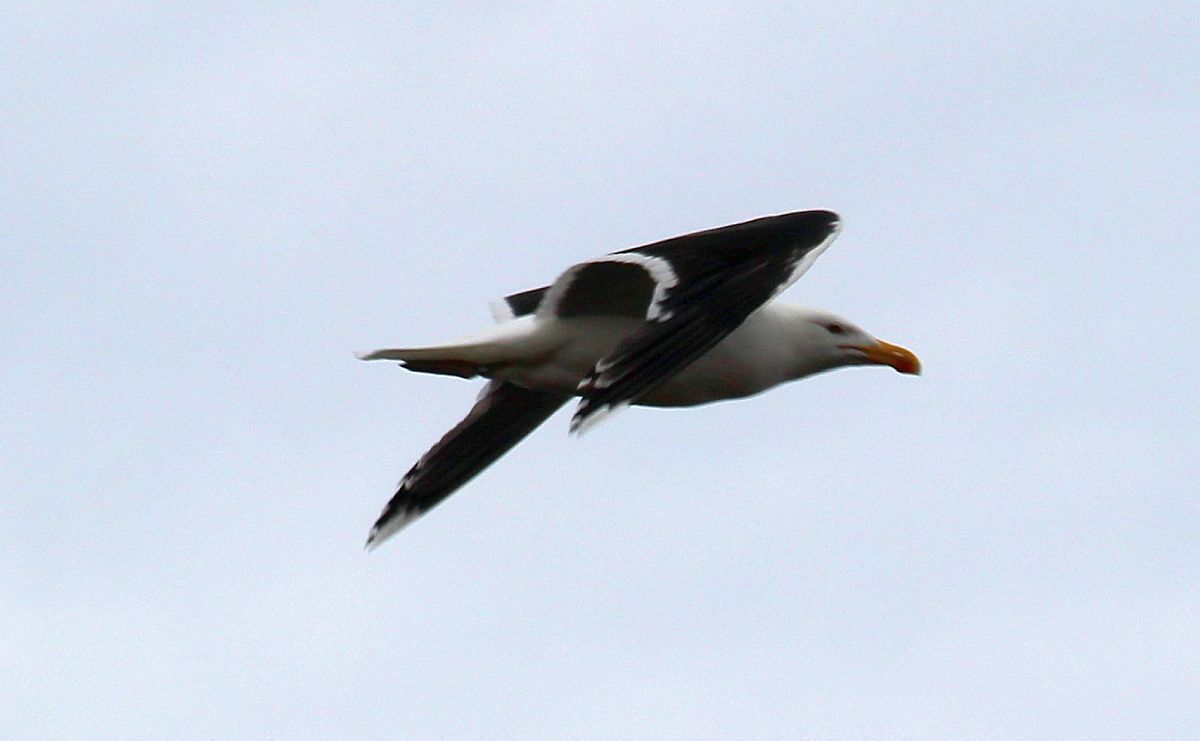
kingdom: Animalia
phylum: Chordata
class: Aves
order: Charadriiformes
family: Laridae
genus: Larus
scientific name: Larus marinus
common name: Great black-backed gull
